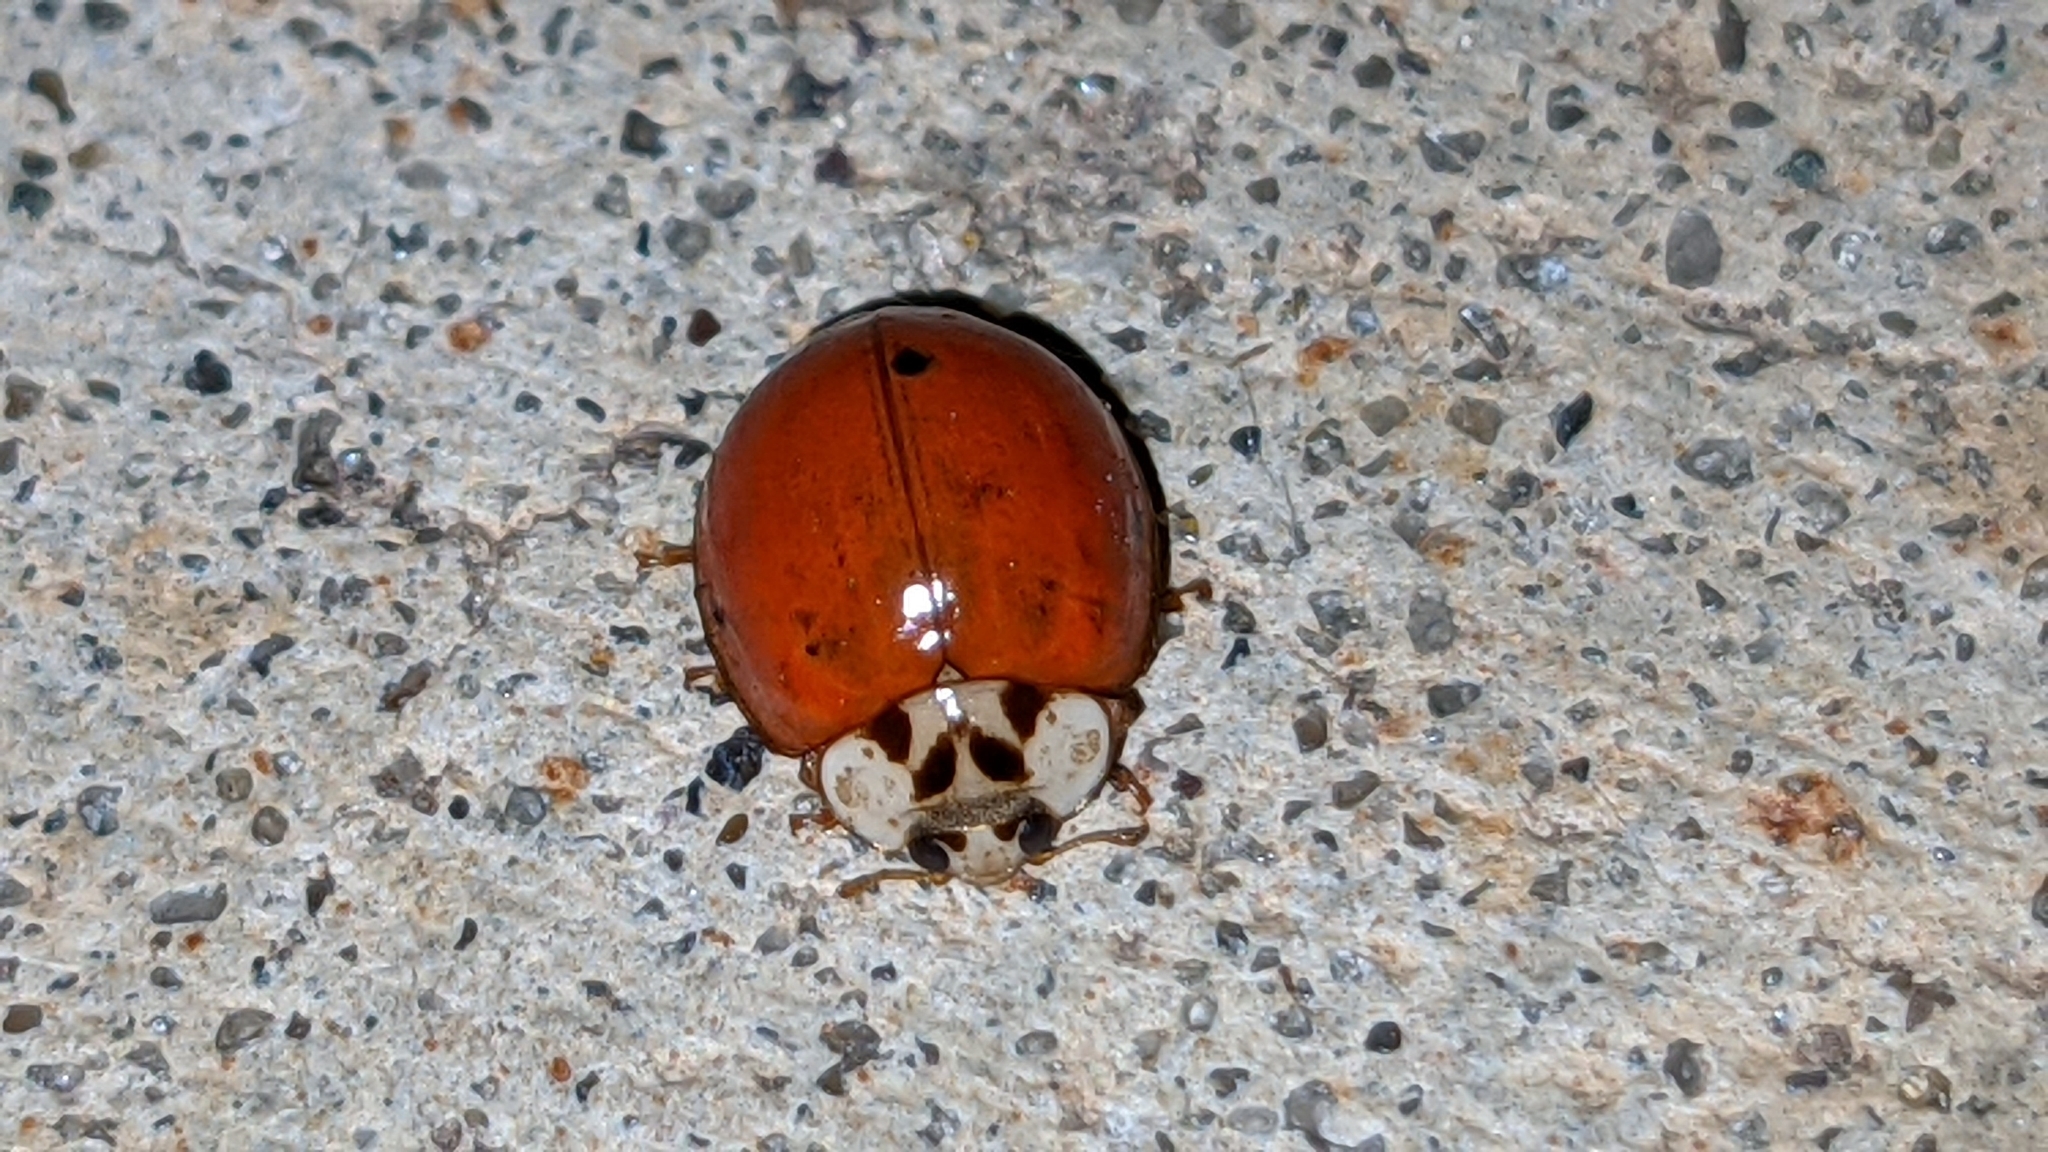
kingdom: Animalia
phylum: Arthropoda
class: Insecta
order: Coleoptera
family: Coccinellidae
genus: Harmonia
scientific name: Harmonia axyridis
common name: Harlequin ladybird
